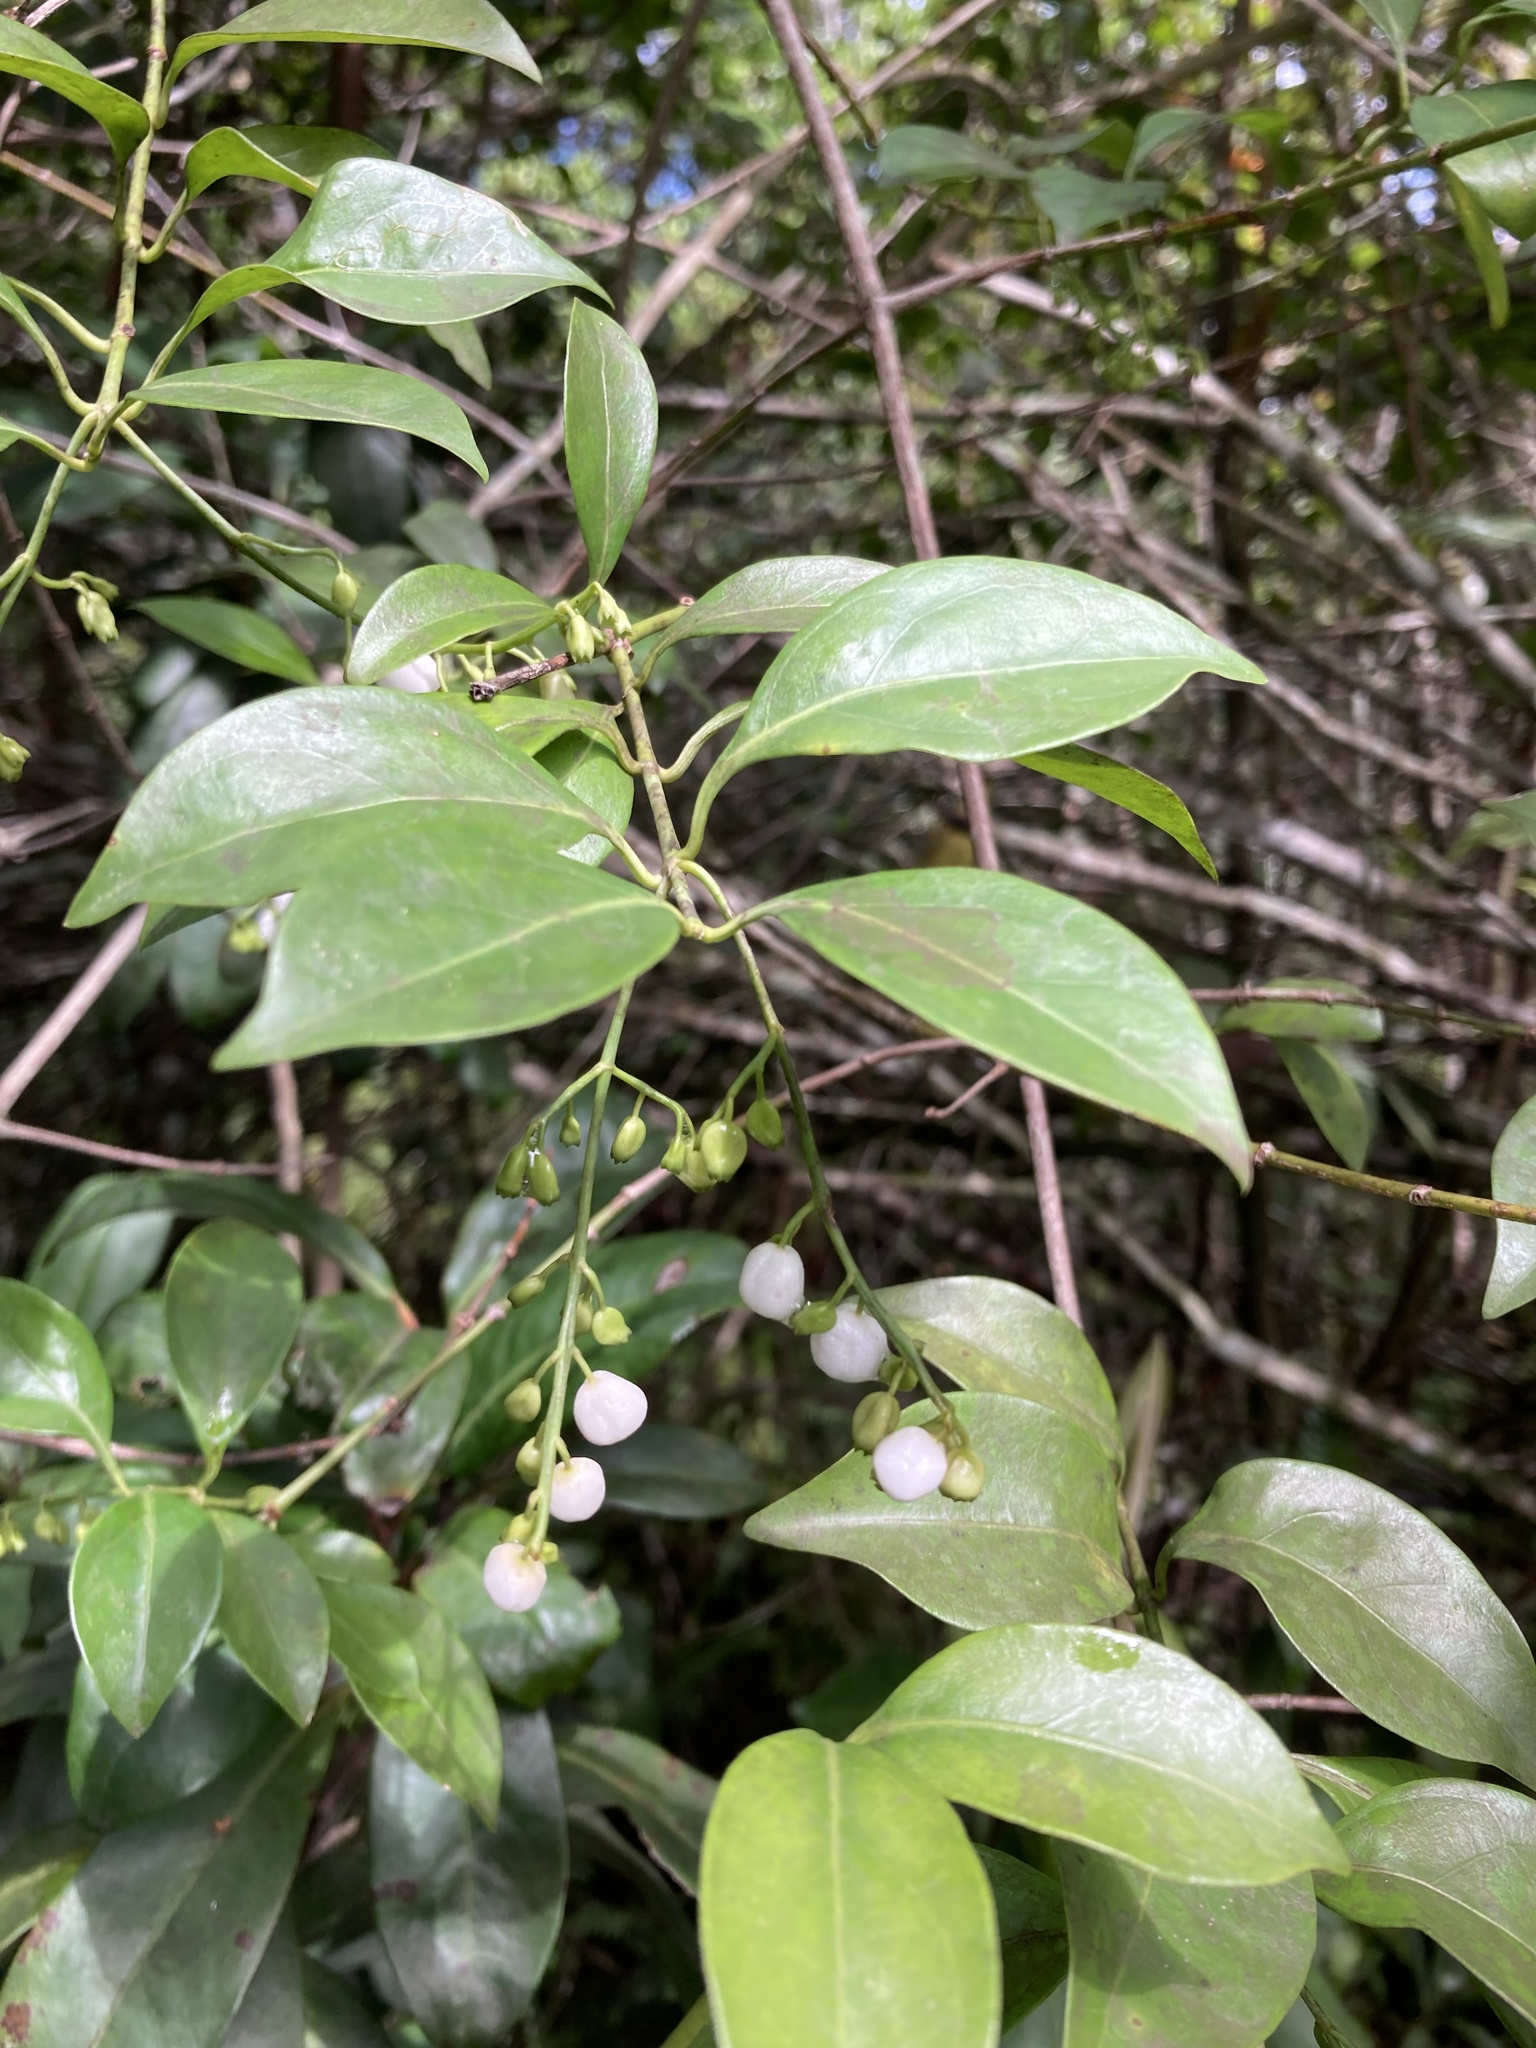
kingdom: Plantae
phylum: Tracheophyta
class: Magnoliopsida
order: Gentianales
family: Rubiaceae
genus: Chiococca
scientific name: Chiococca alba
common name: Snowberry
